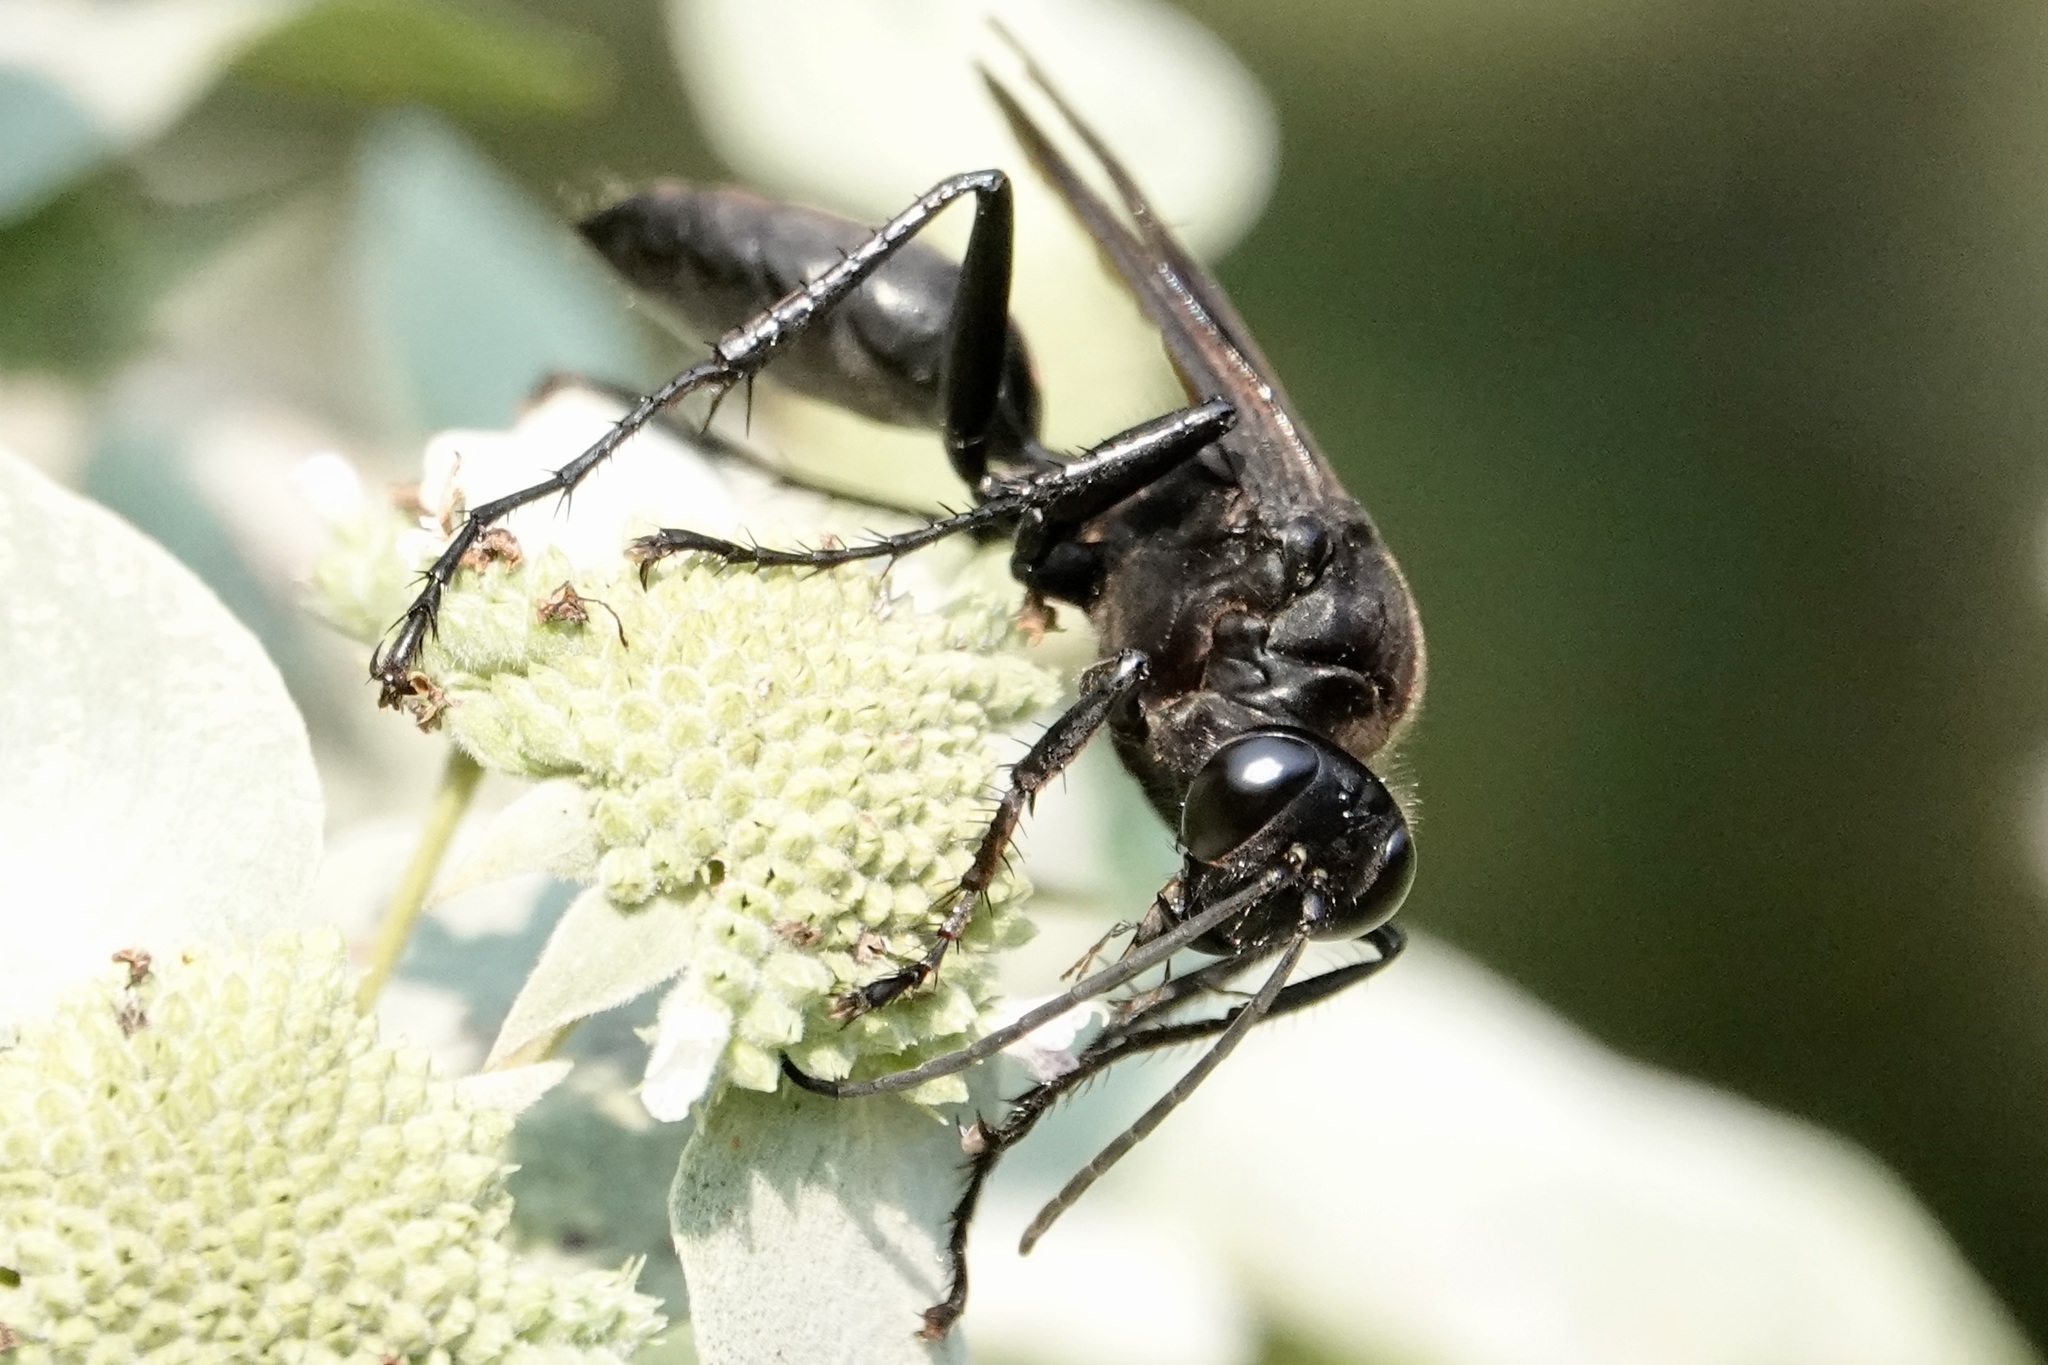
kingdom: Animalia
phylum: Arthropoda
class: Insecta
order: Hymenoptera
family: Sphecidae
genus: Sphex
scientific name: Sphex pensylvanicus
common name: Great black digger wasp
